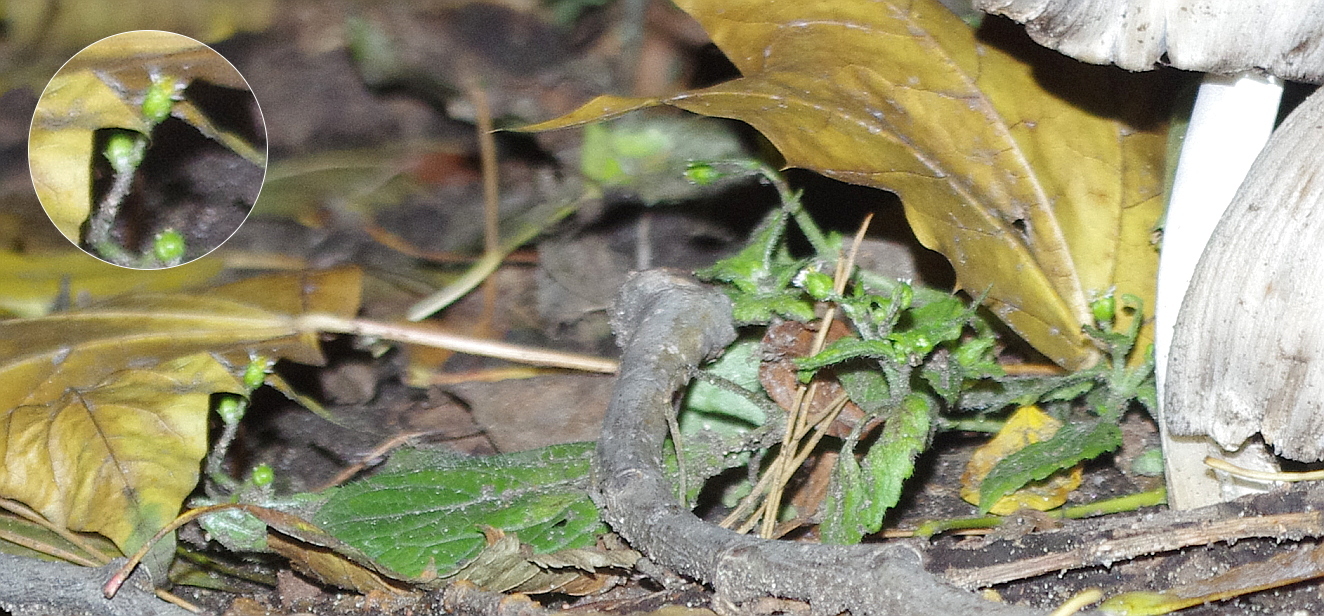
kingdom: Plantae
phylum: Tracheophyta
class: Magnoliopsida
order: Asterales
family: Asteraceae
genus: Galinsoga
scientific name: Galinsoga parviflora
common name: Gallant soldier
